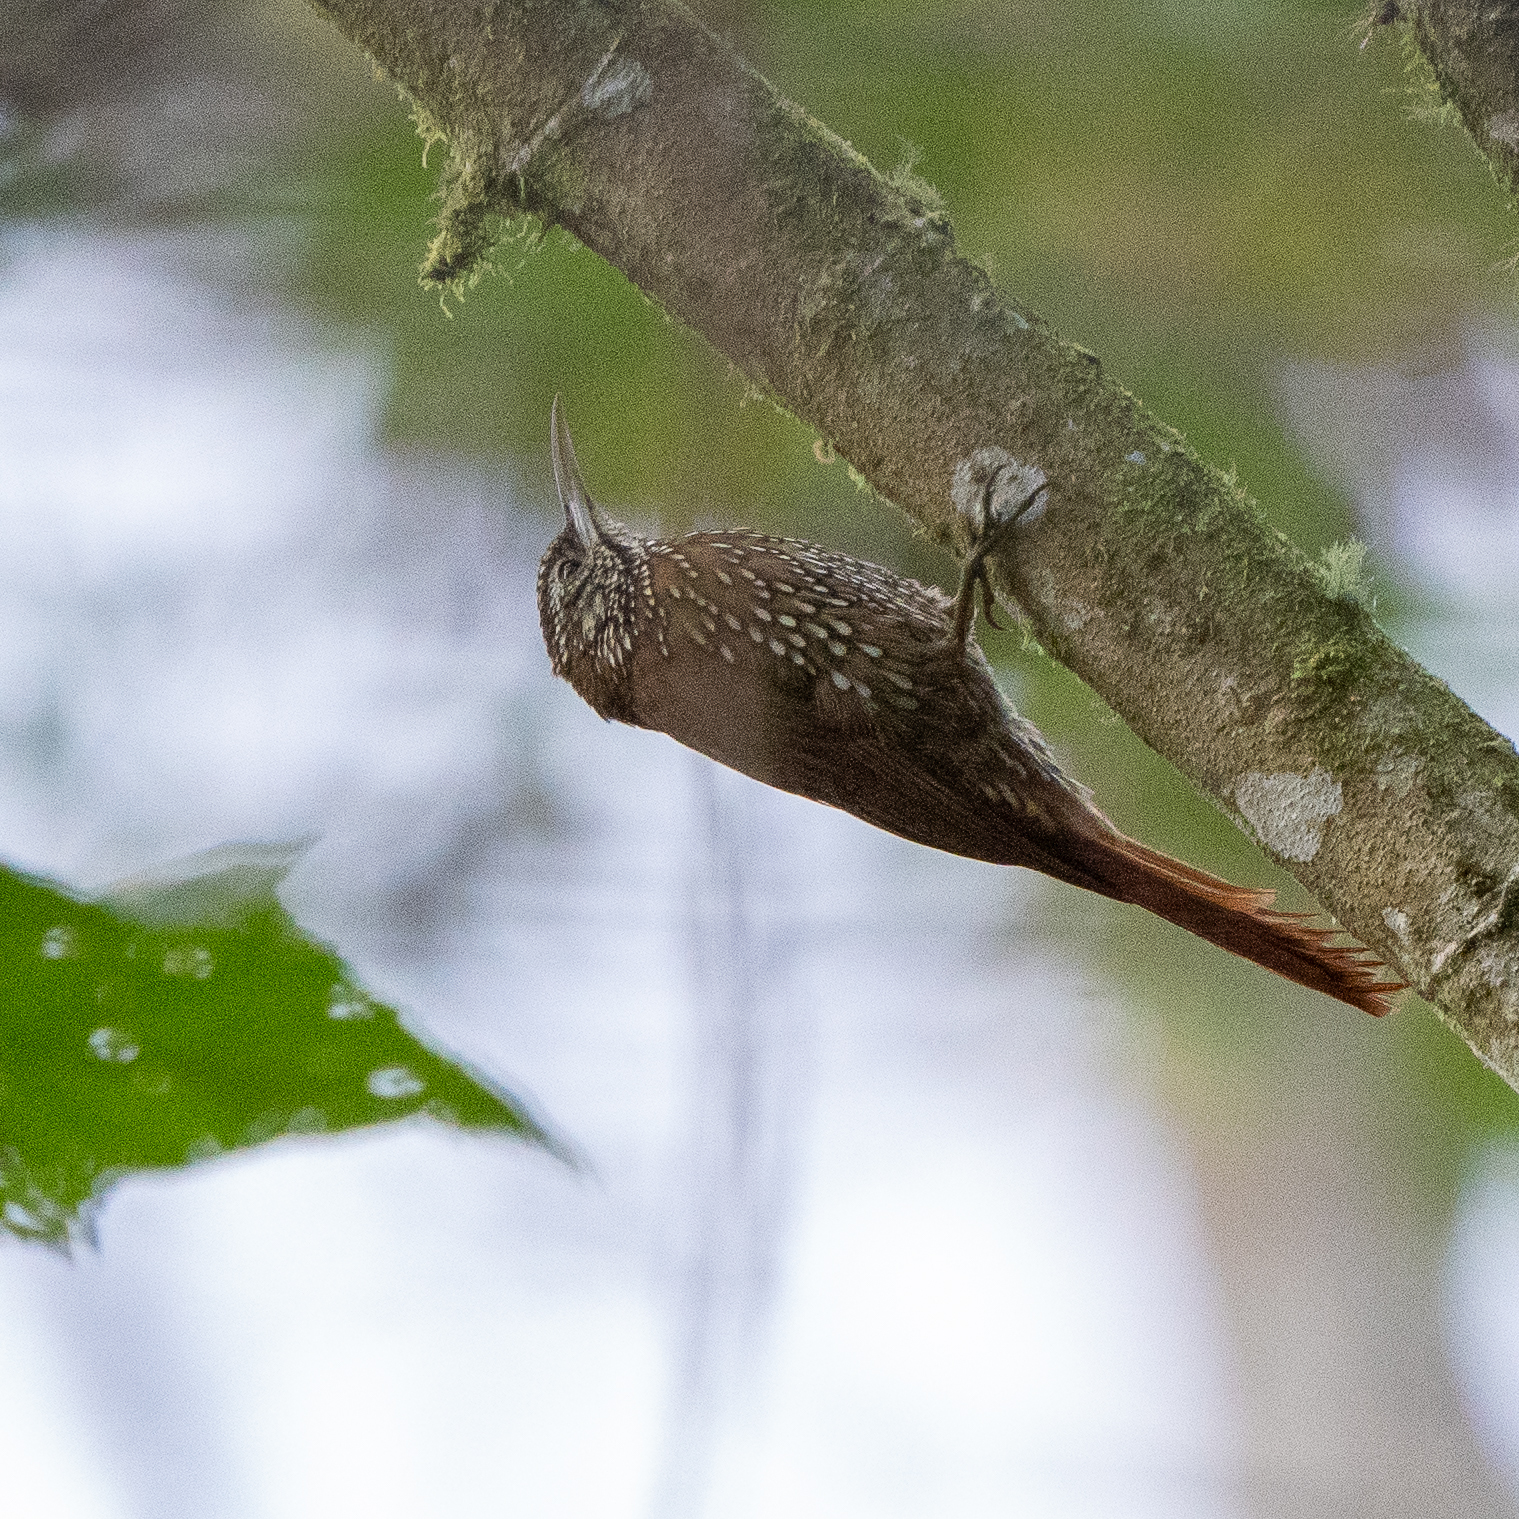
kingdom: Animalia
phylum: Chordata
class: Aves
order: Passeriformes
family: Furnariidae
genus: Lepidocolaptes
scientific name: Lepidocolaptes lacrymiger
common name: Montane woodcreeper
